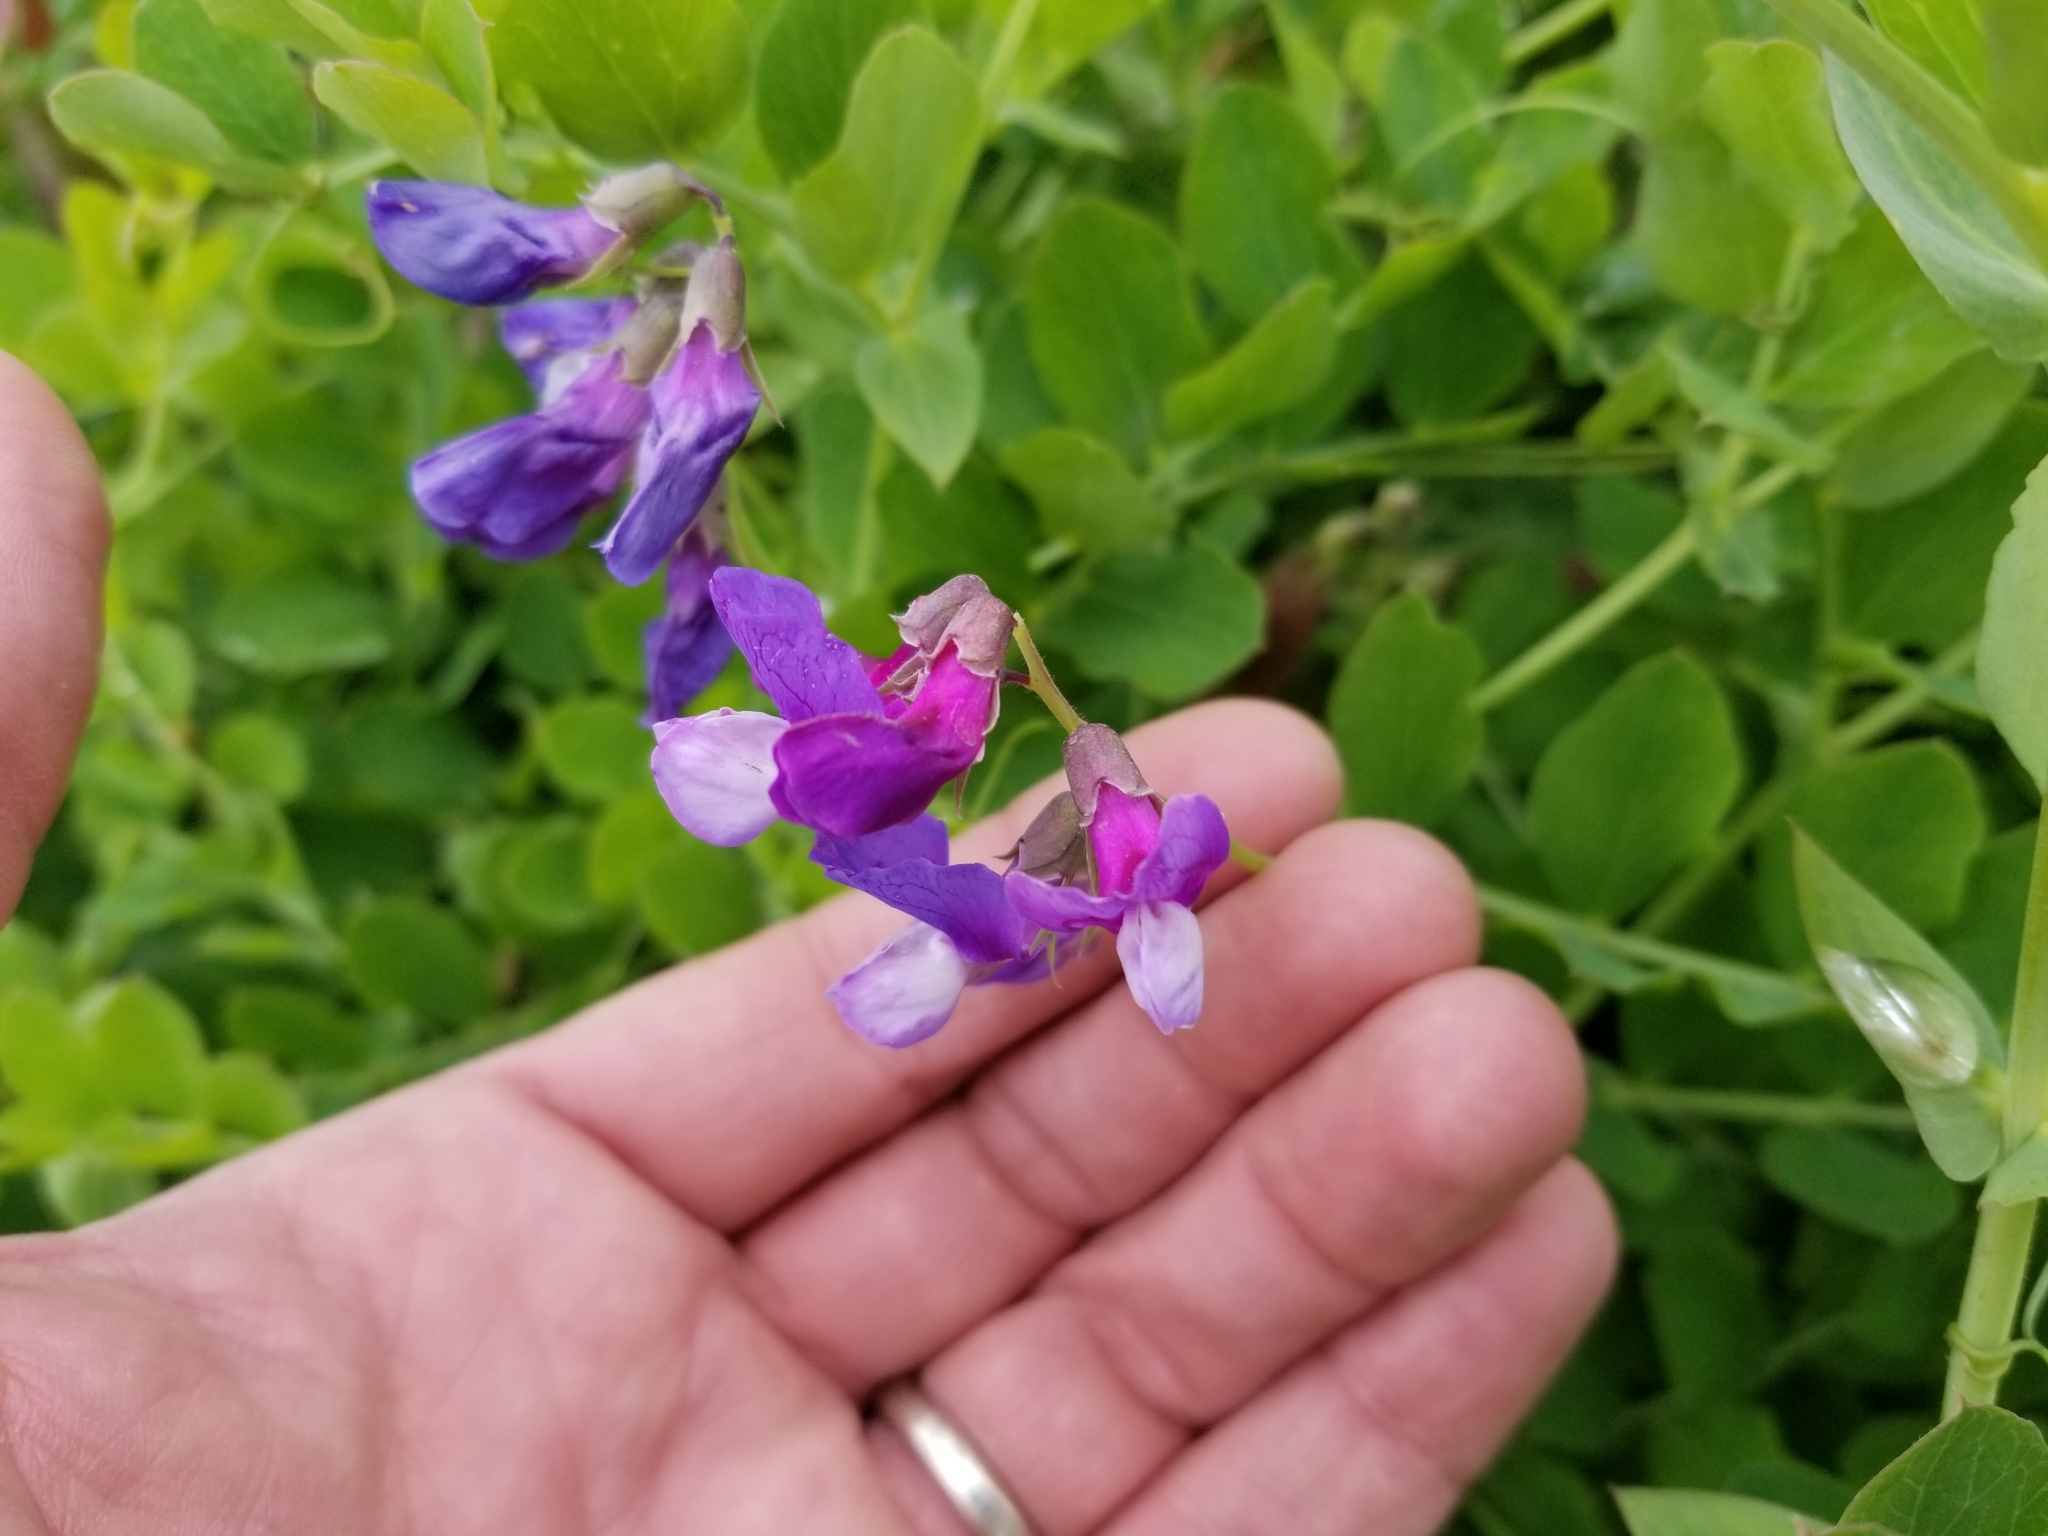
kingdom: Plantae
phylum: Tracheophyta
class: Magnoliopsida
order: Fabales
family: Fabaceae
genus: Lathyrus
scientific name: Lathyrus japonicus
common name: Sea pea
